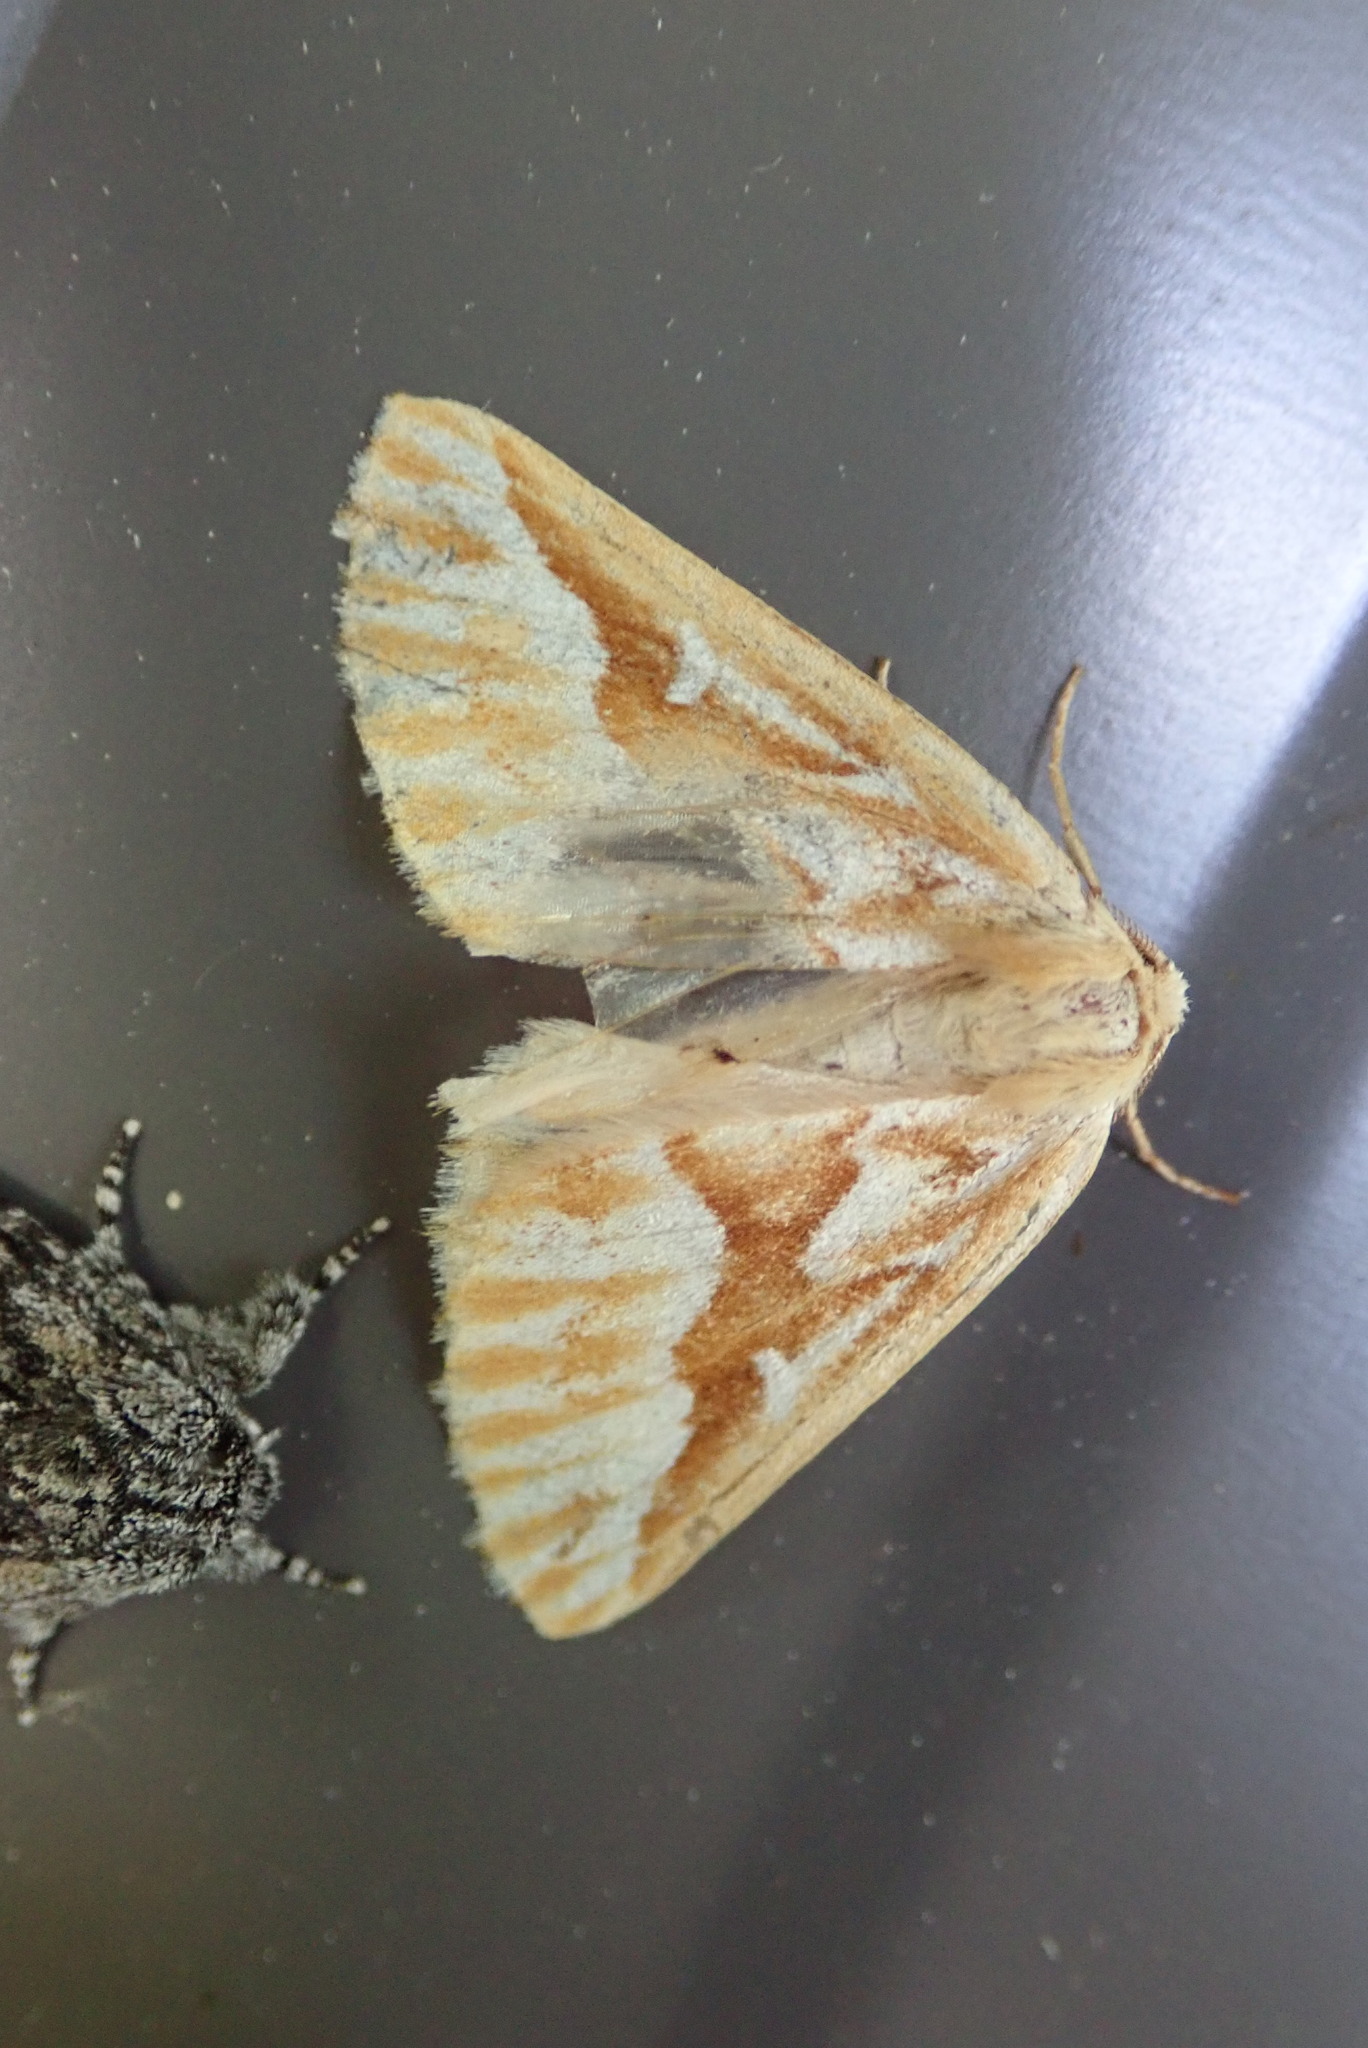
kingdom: Animalia
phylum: Arthropoda
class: Insecta
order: Lepidoptera
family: Geometridae
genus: Caripeta
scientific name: Caripeta piniata
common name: Northern pine looper moth
